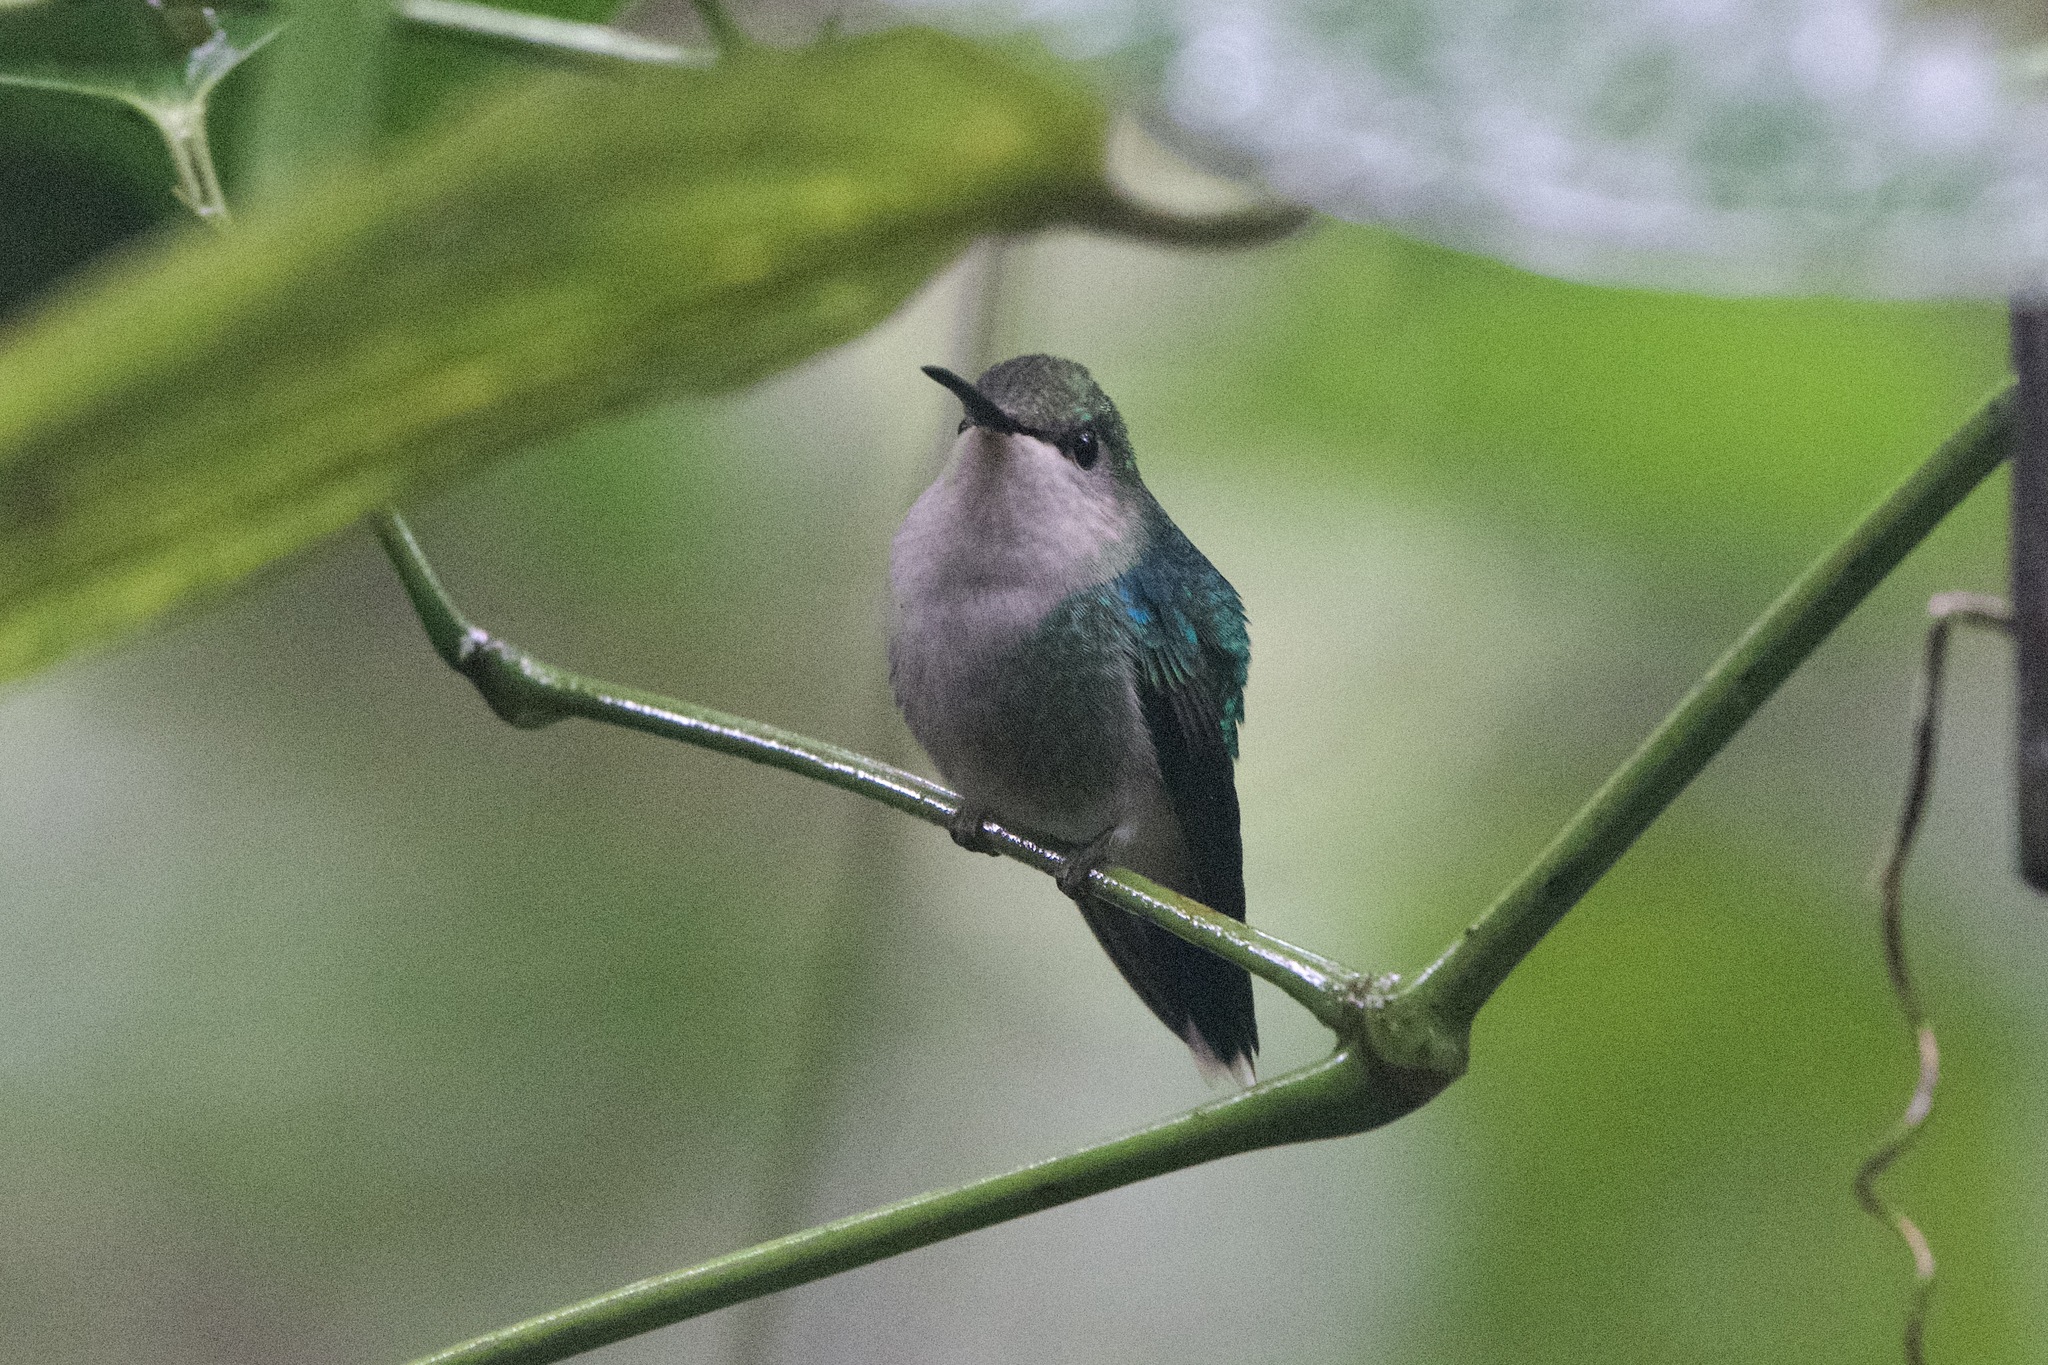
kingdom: Animalia
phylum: Chordata
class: Aves
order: Apodiformes
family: Trochilidae
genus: Thalurania
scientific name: Thalurania colombica
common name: Crowned woodnymph
